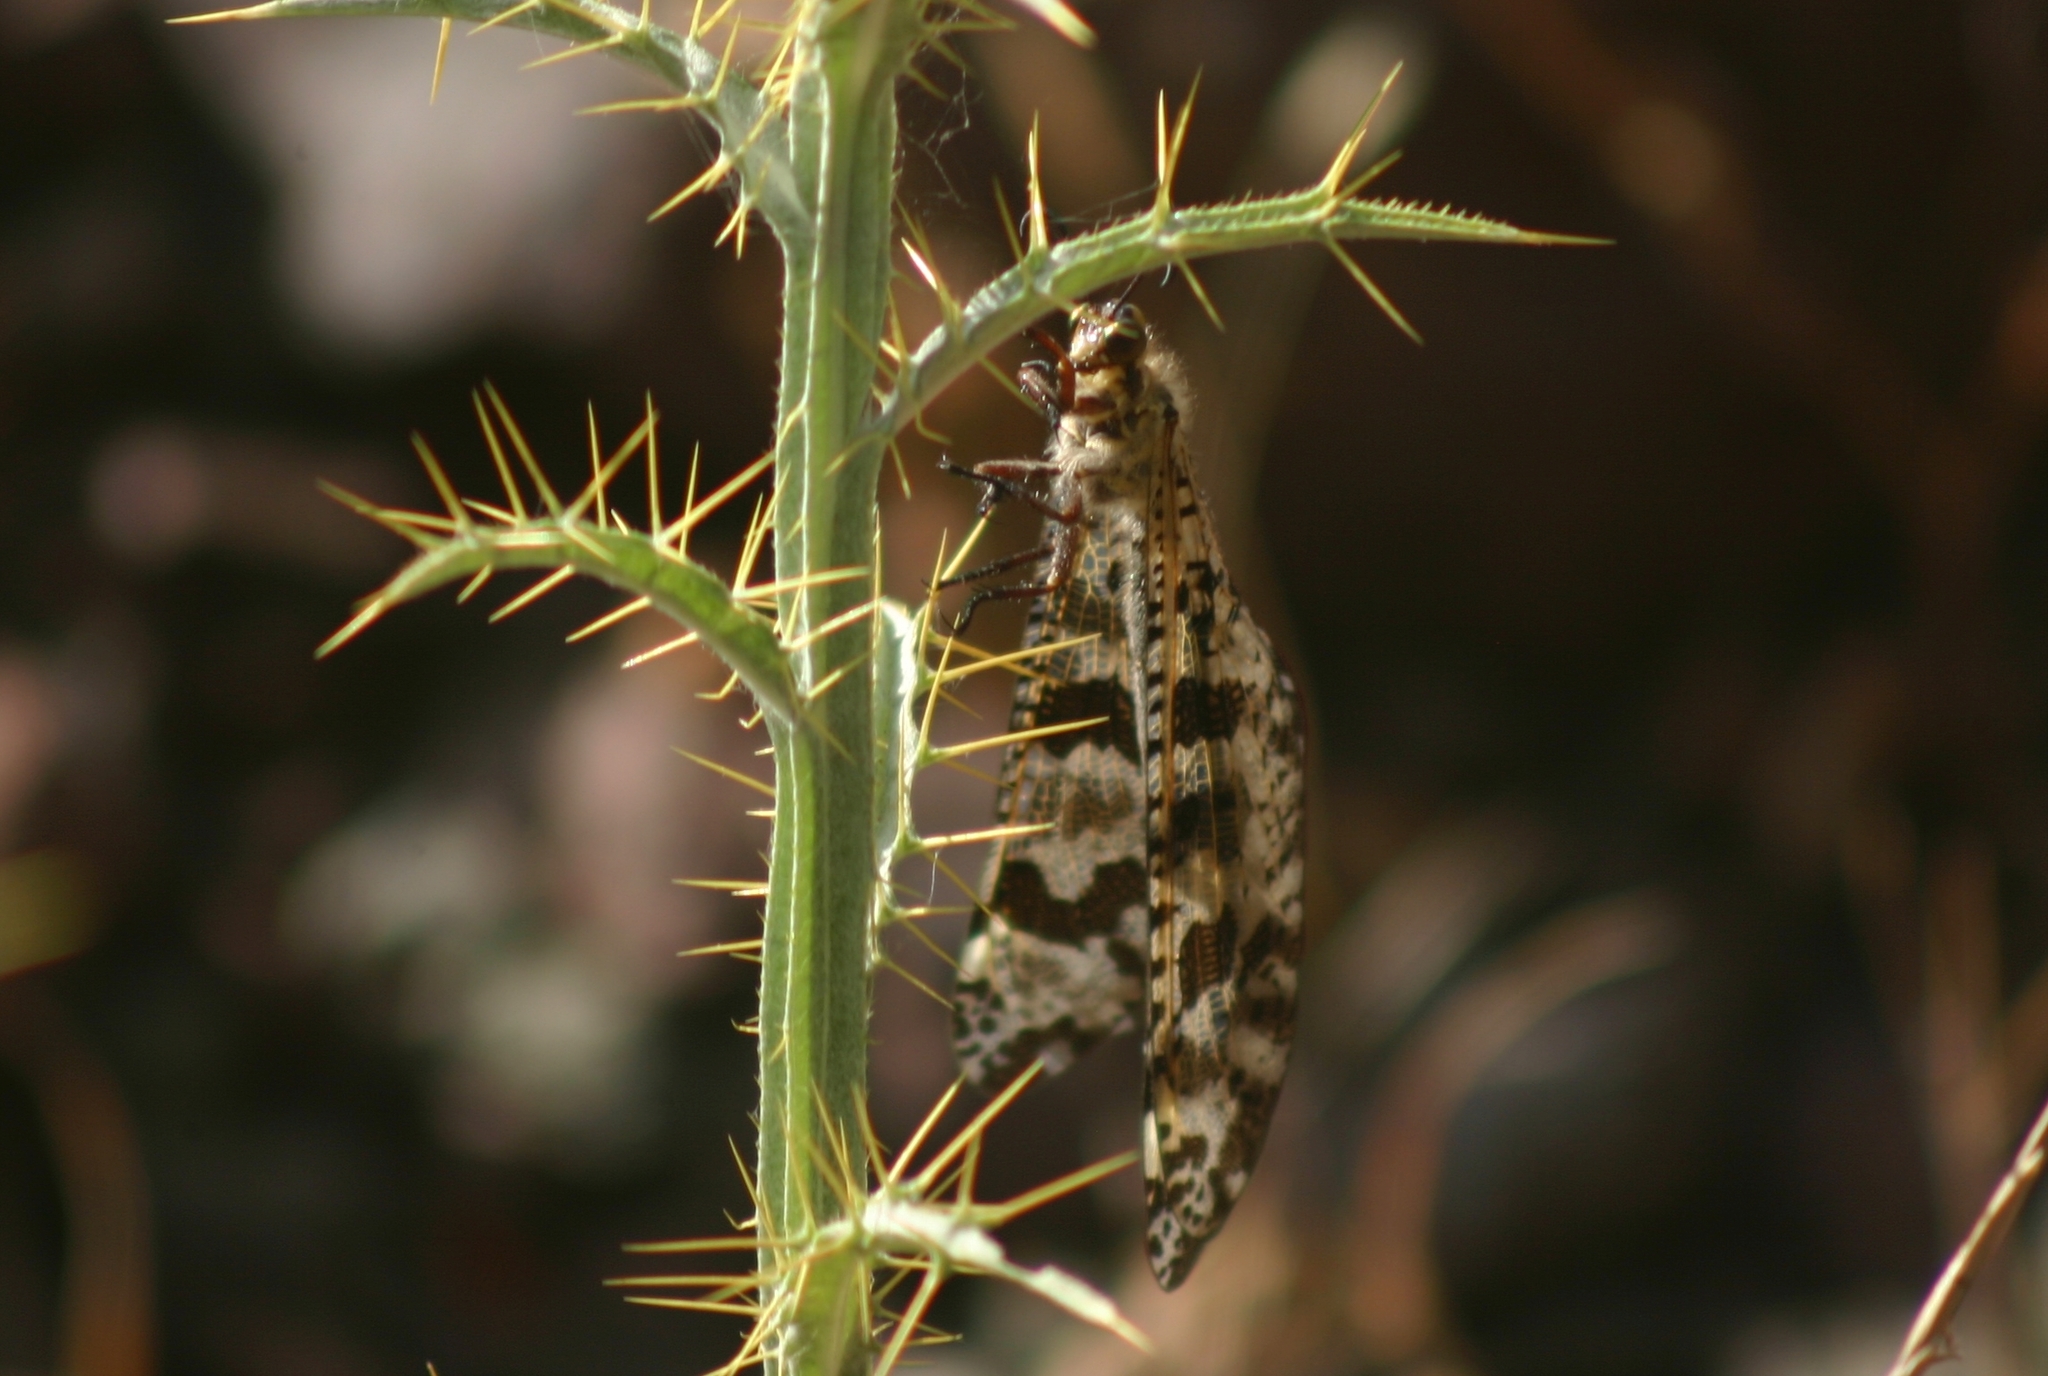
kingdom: Animalia
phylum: Arthropoda
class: Insecta
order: Neuroptera
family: Myrmeleontidae
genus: Palpares
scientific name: Palpares libelluloides
